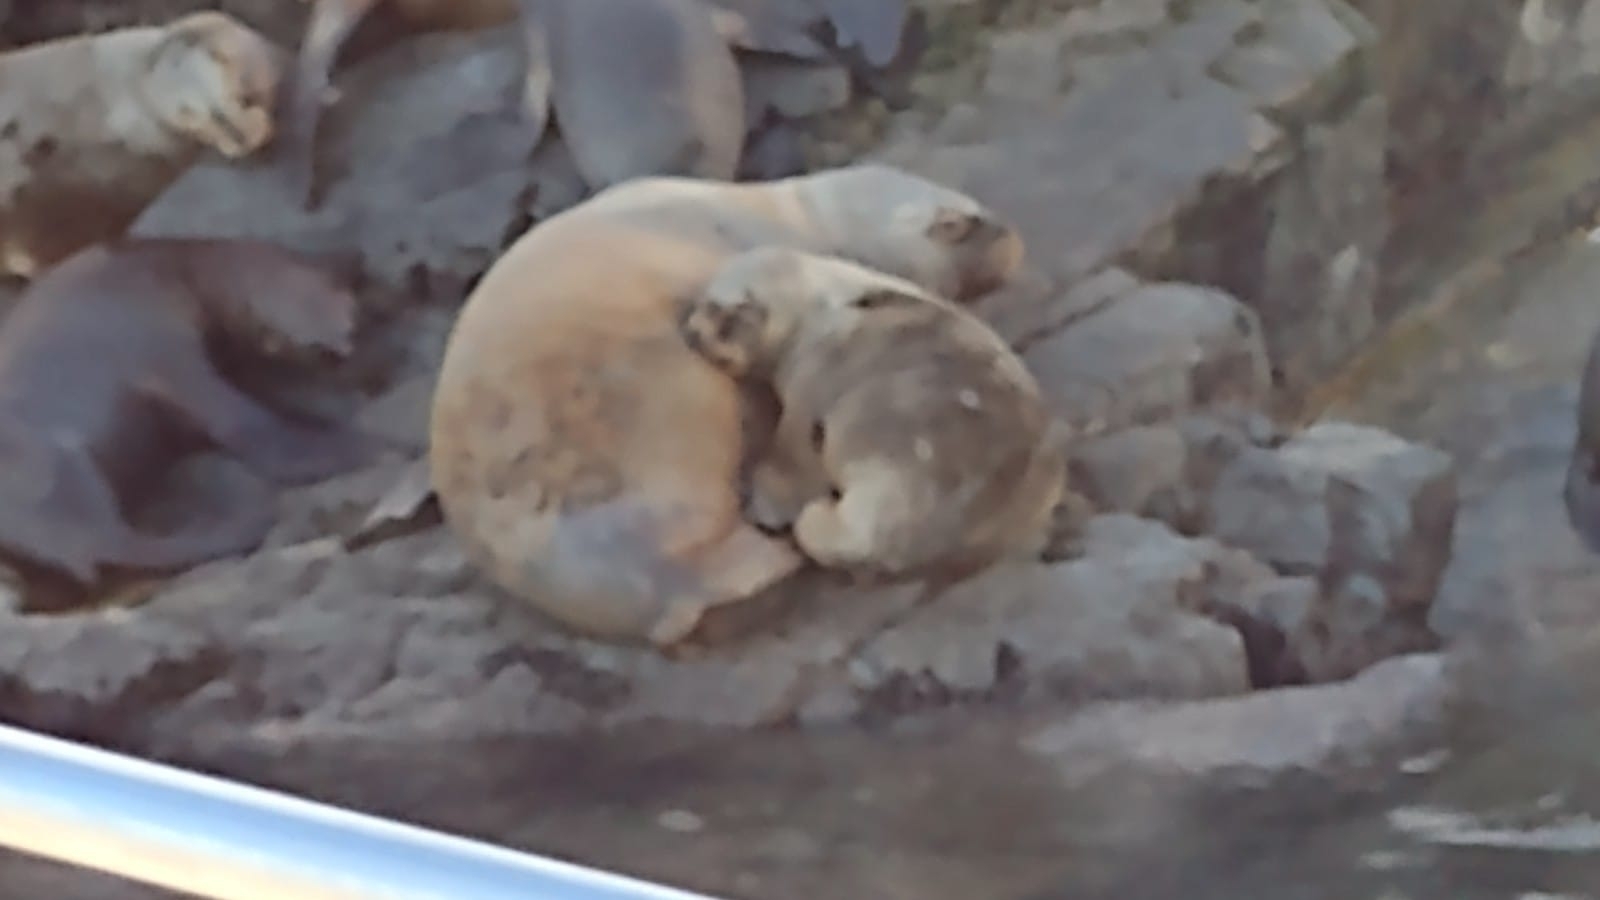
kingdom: Animalia
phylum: Chordata
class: Mammalia
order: Carnivora
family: Otariidae
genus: Otaria
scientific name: Otaria byronia
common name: South american sea lion
